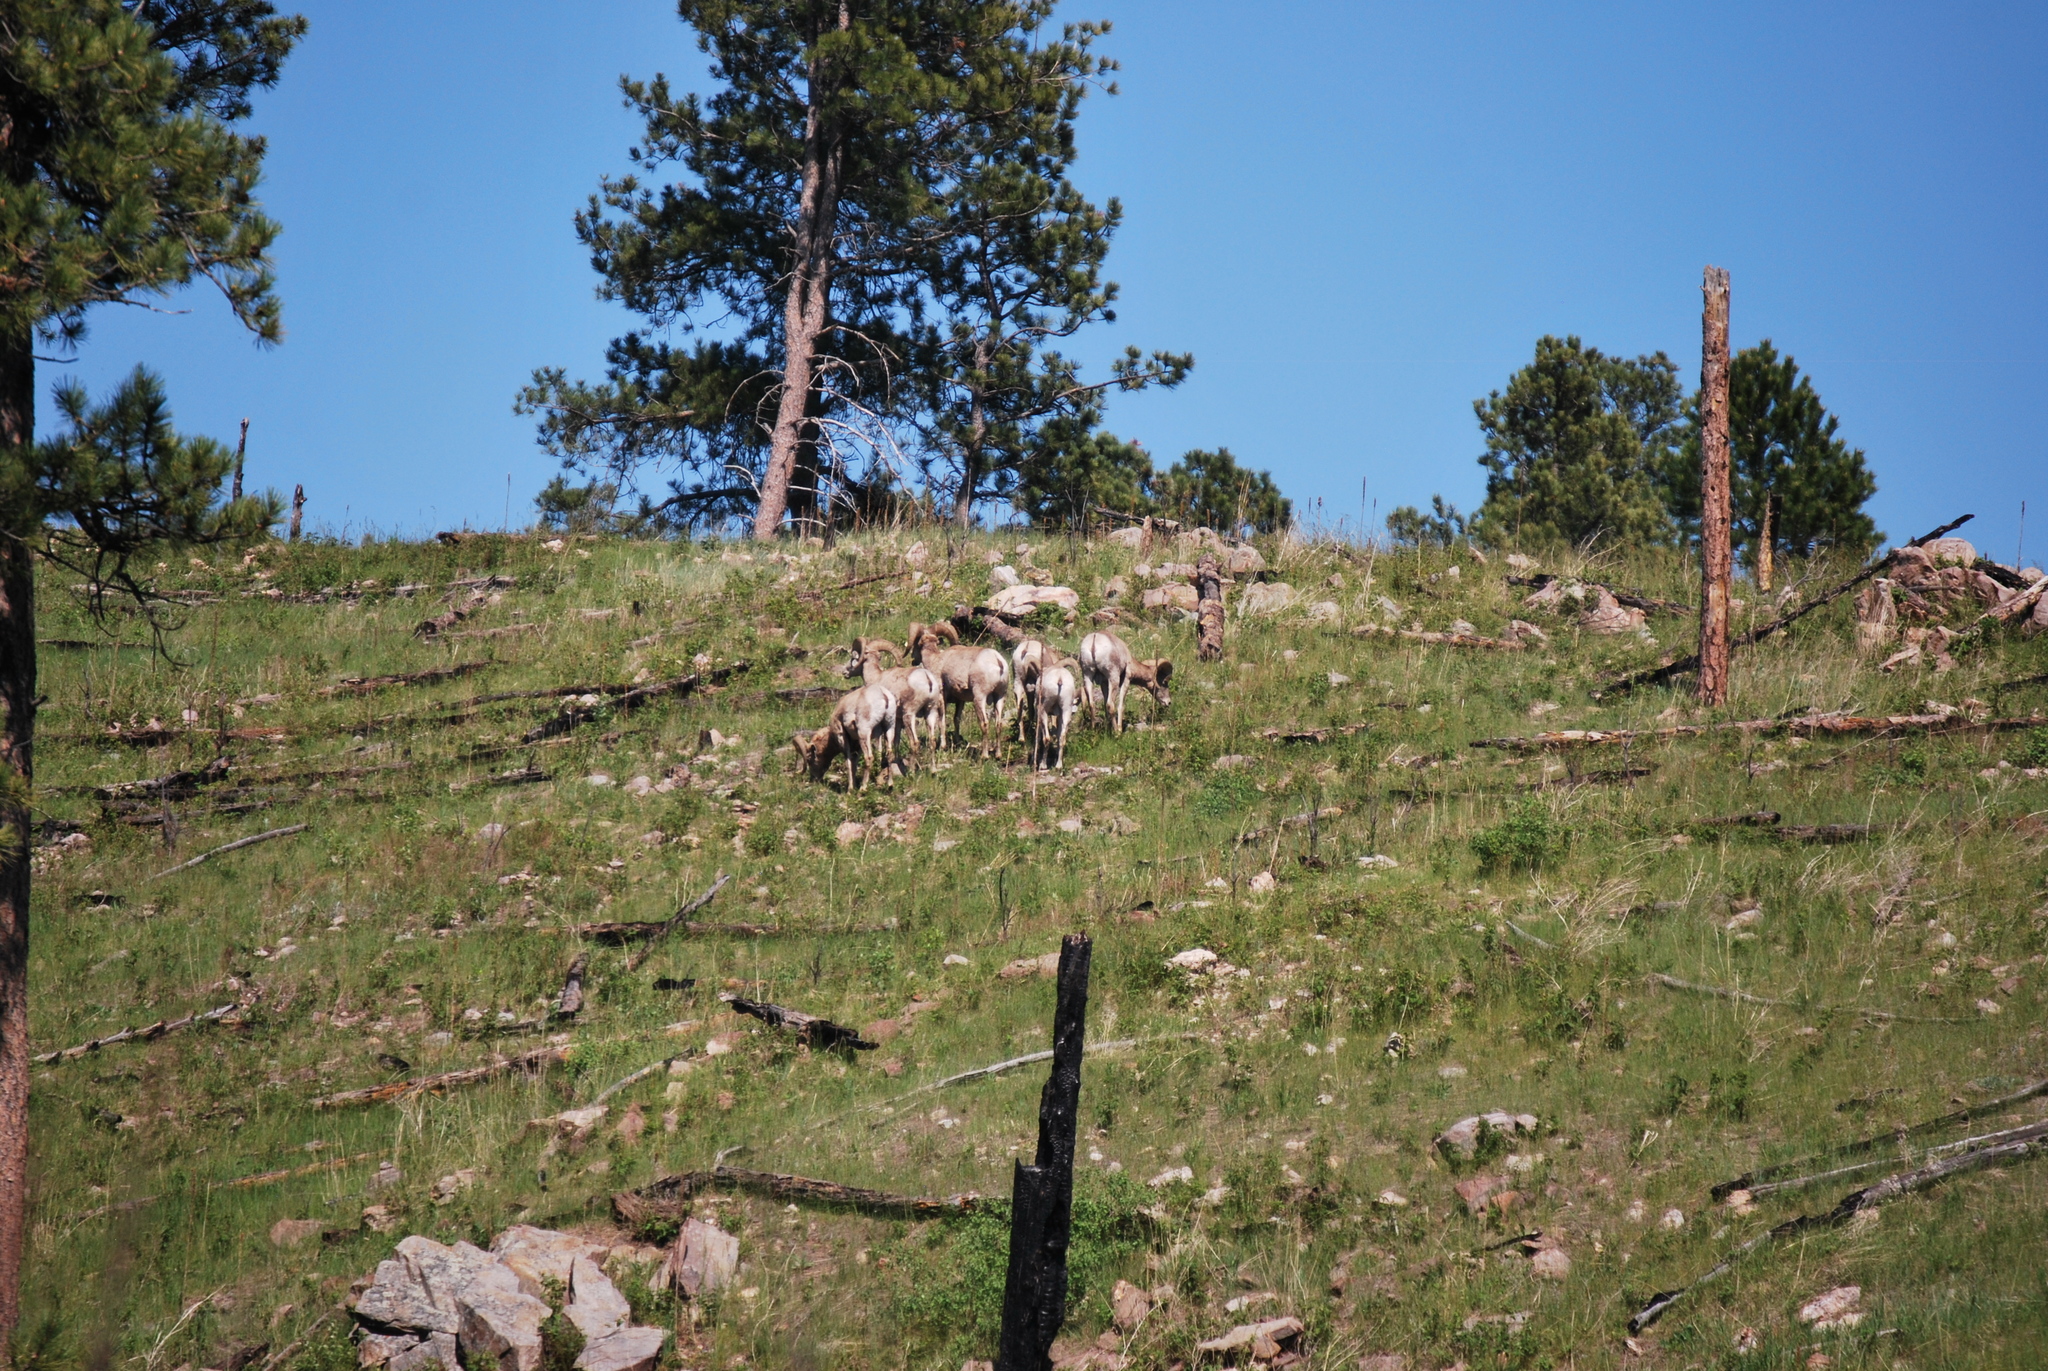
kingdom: Animalia
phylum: Chordata
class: Mammalia
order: Artiodactyla
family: Bovidae
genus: Ovis
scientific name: Ovis canadensis
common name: Bighorn sheep
